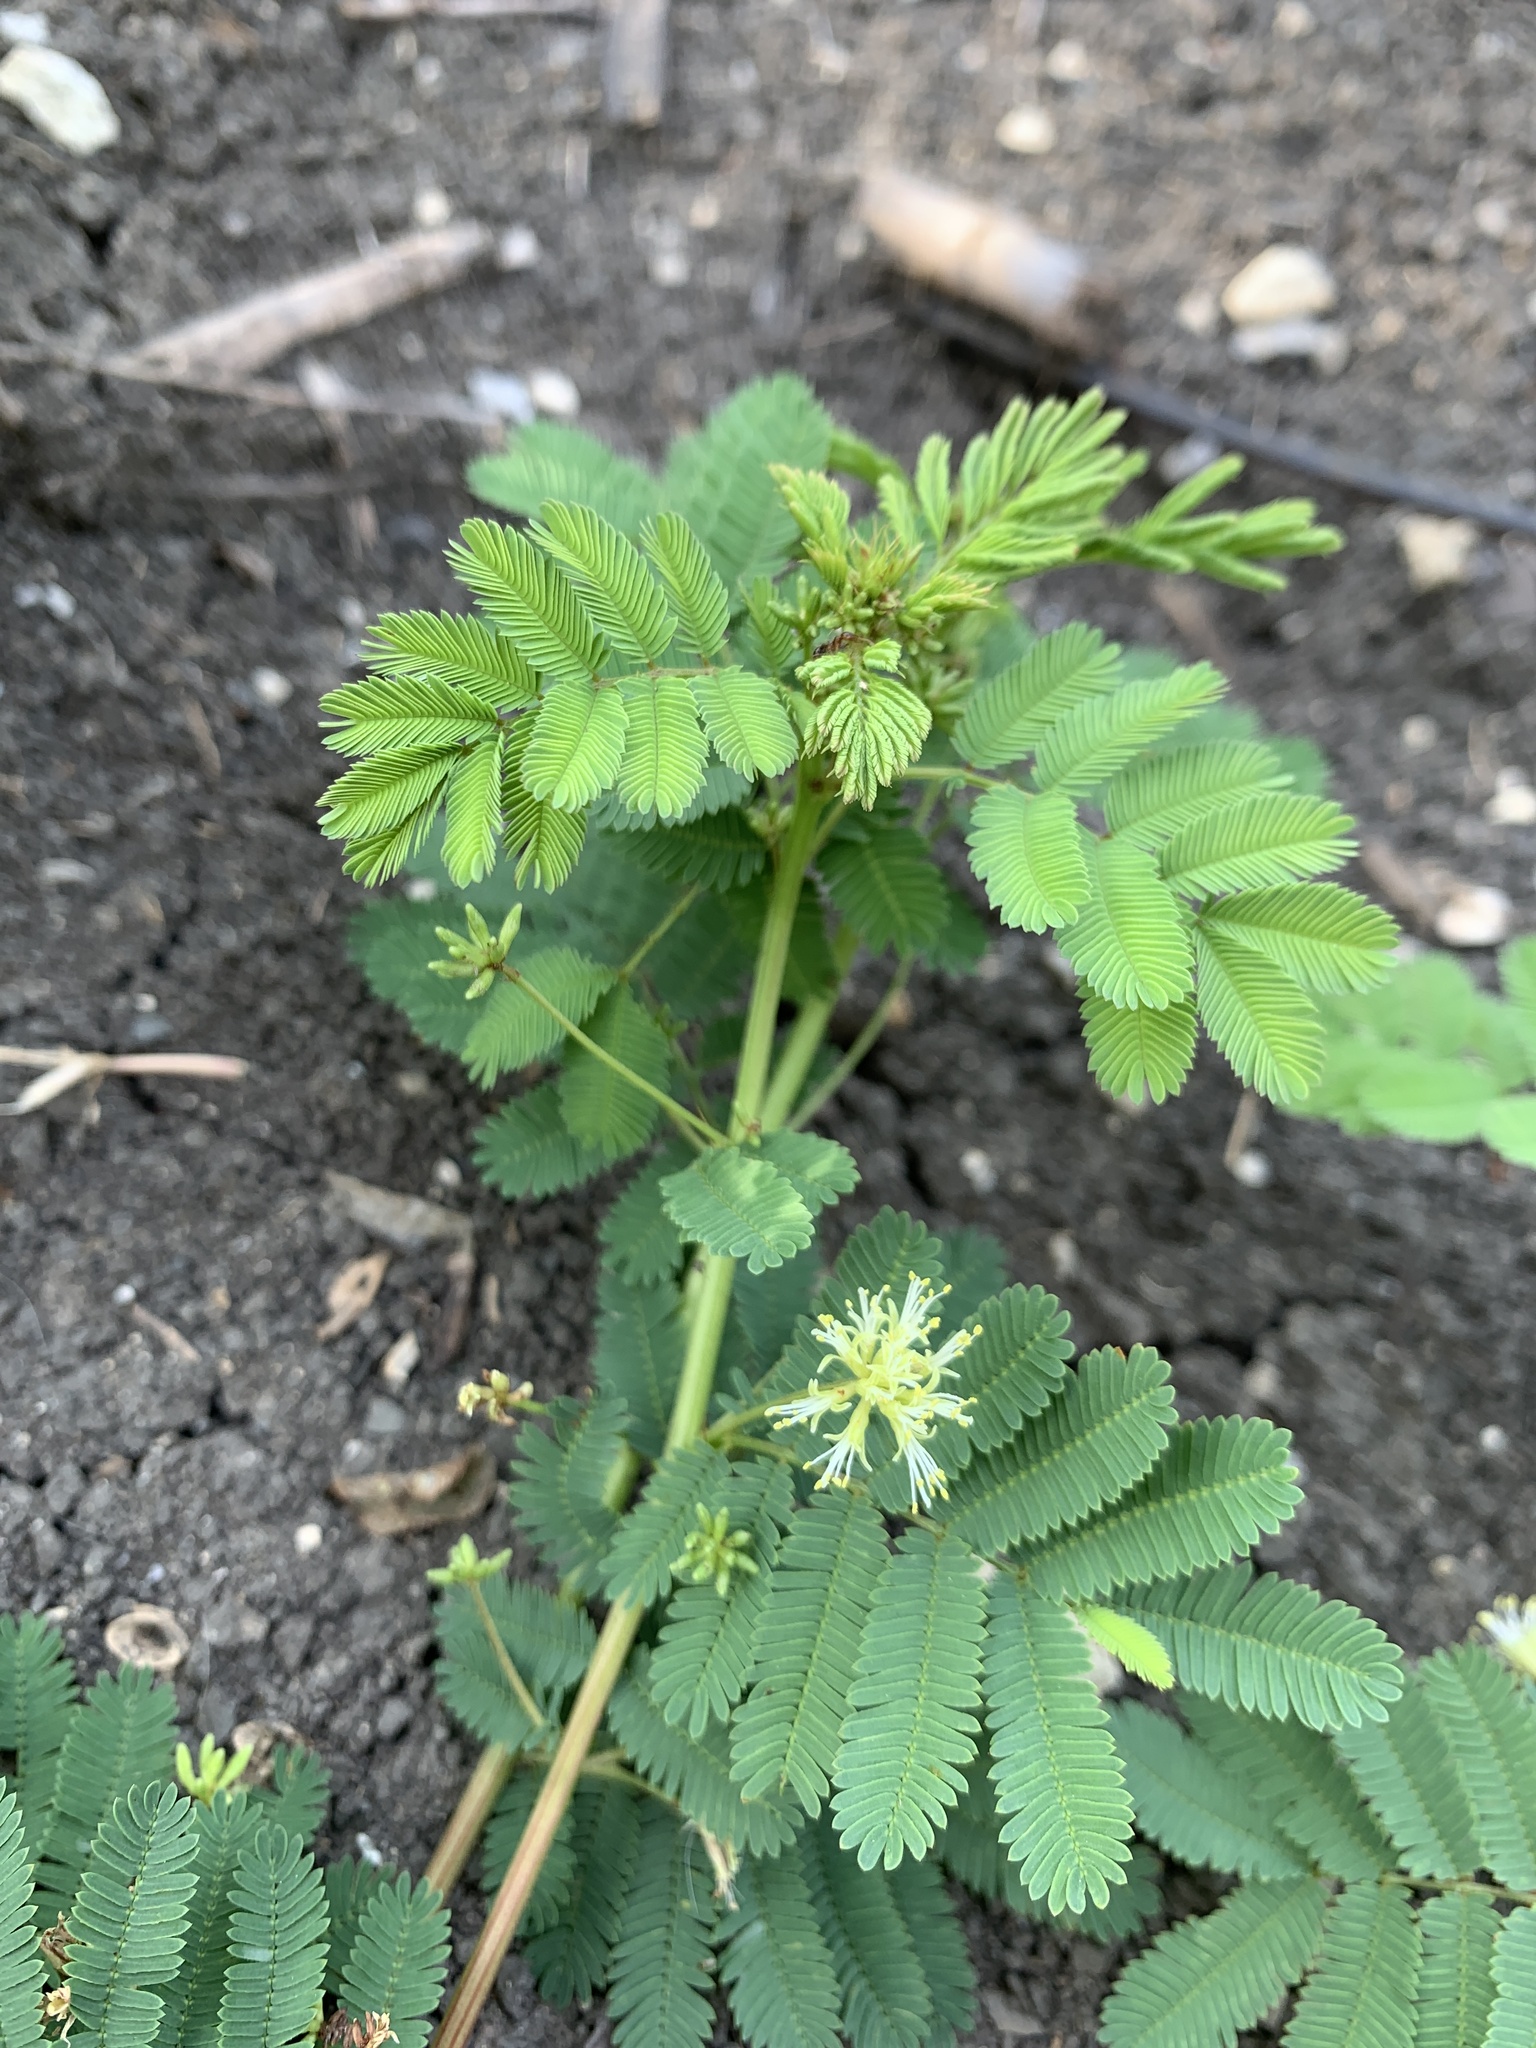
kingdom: Plantae
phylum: Tracheophyta
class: Magnoliopsida
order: Fabales
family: Fabaceae
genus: Desmanthus
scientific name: Desmanthus leptolobus
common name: Prairie-mimosa
